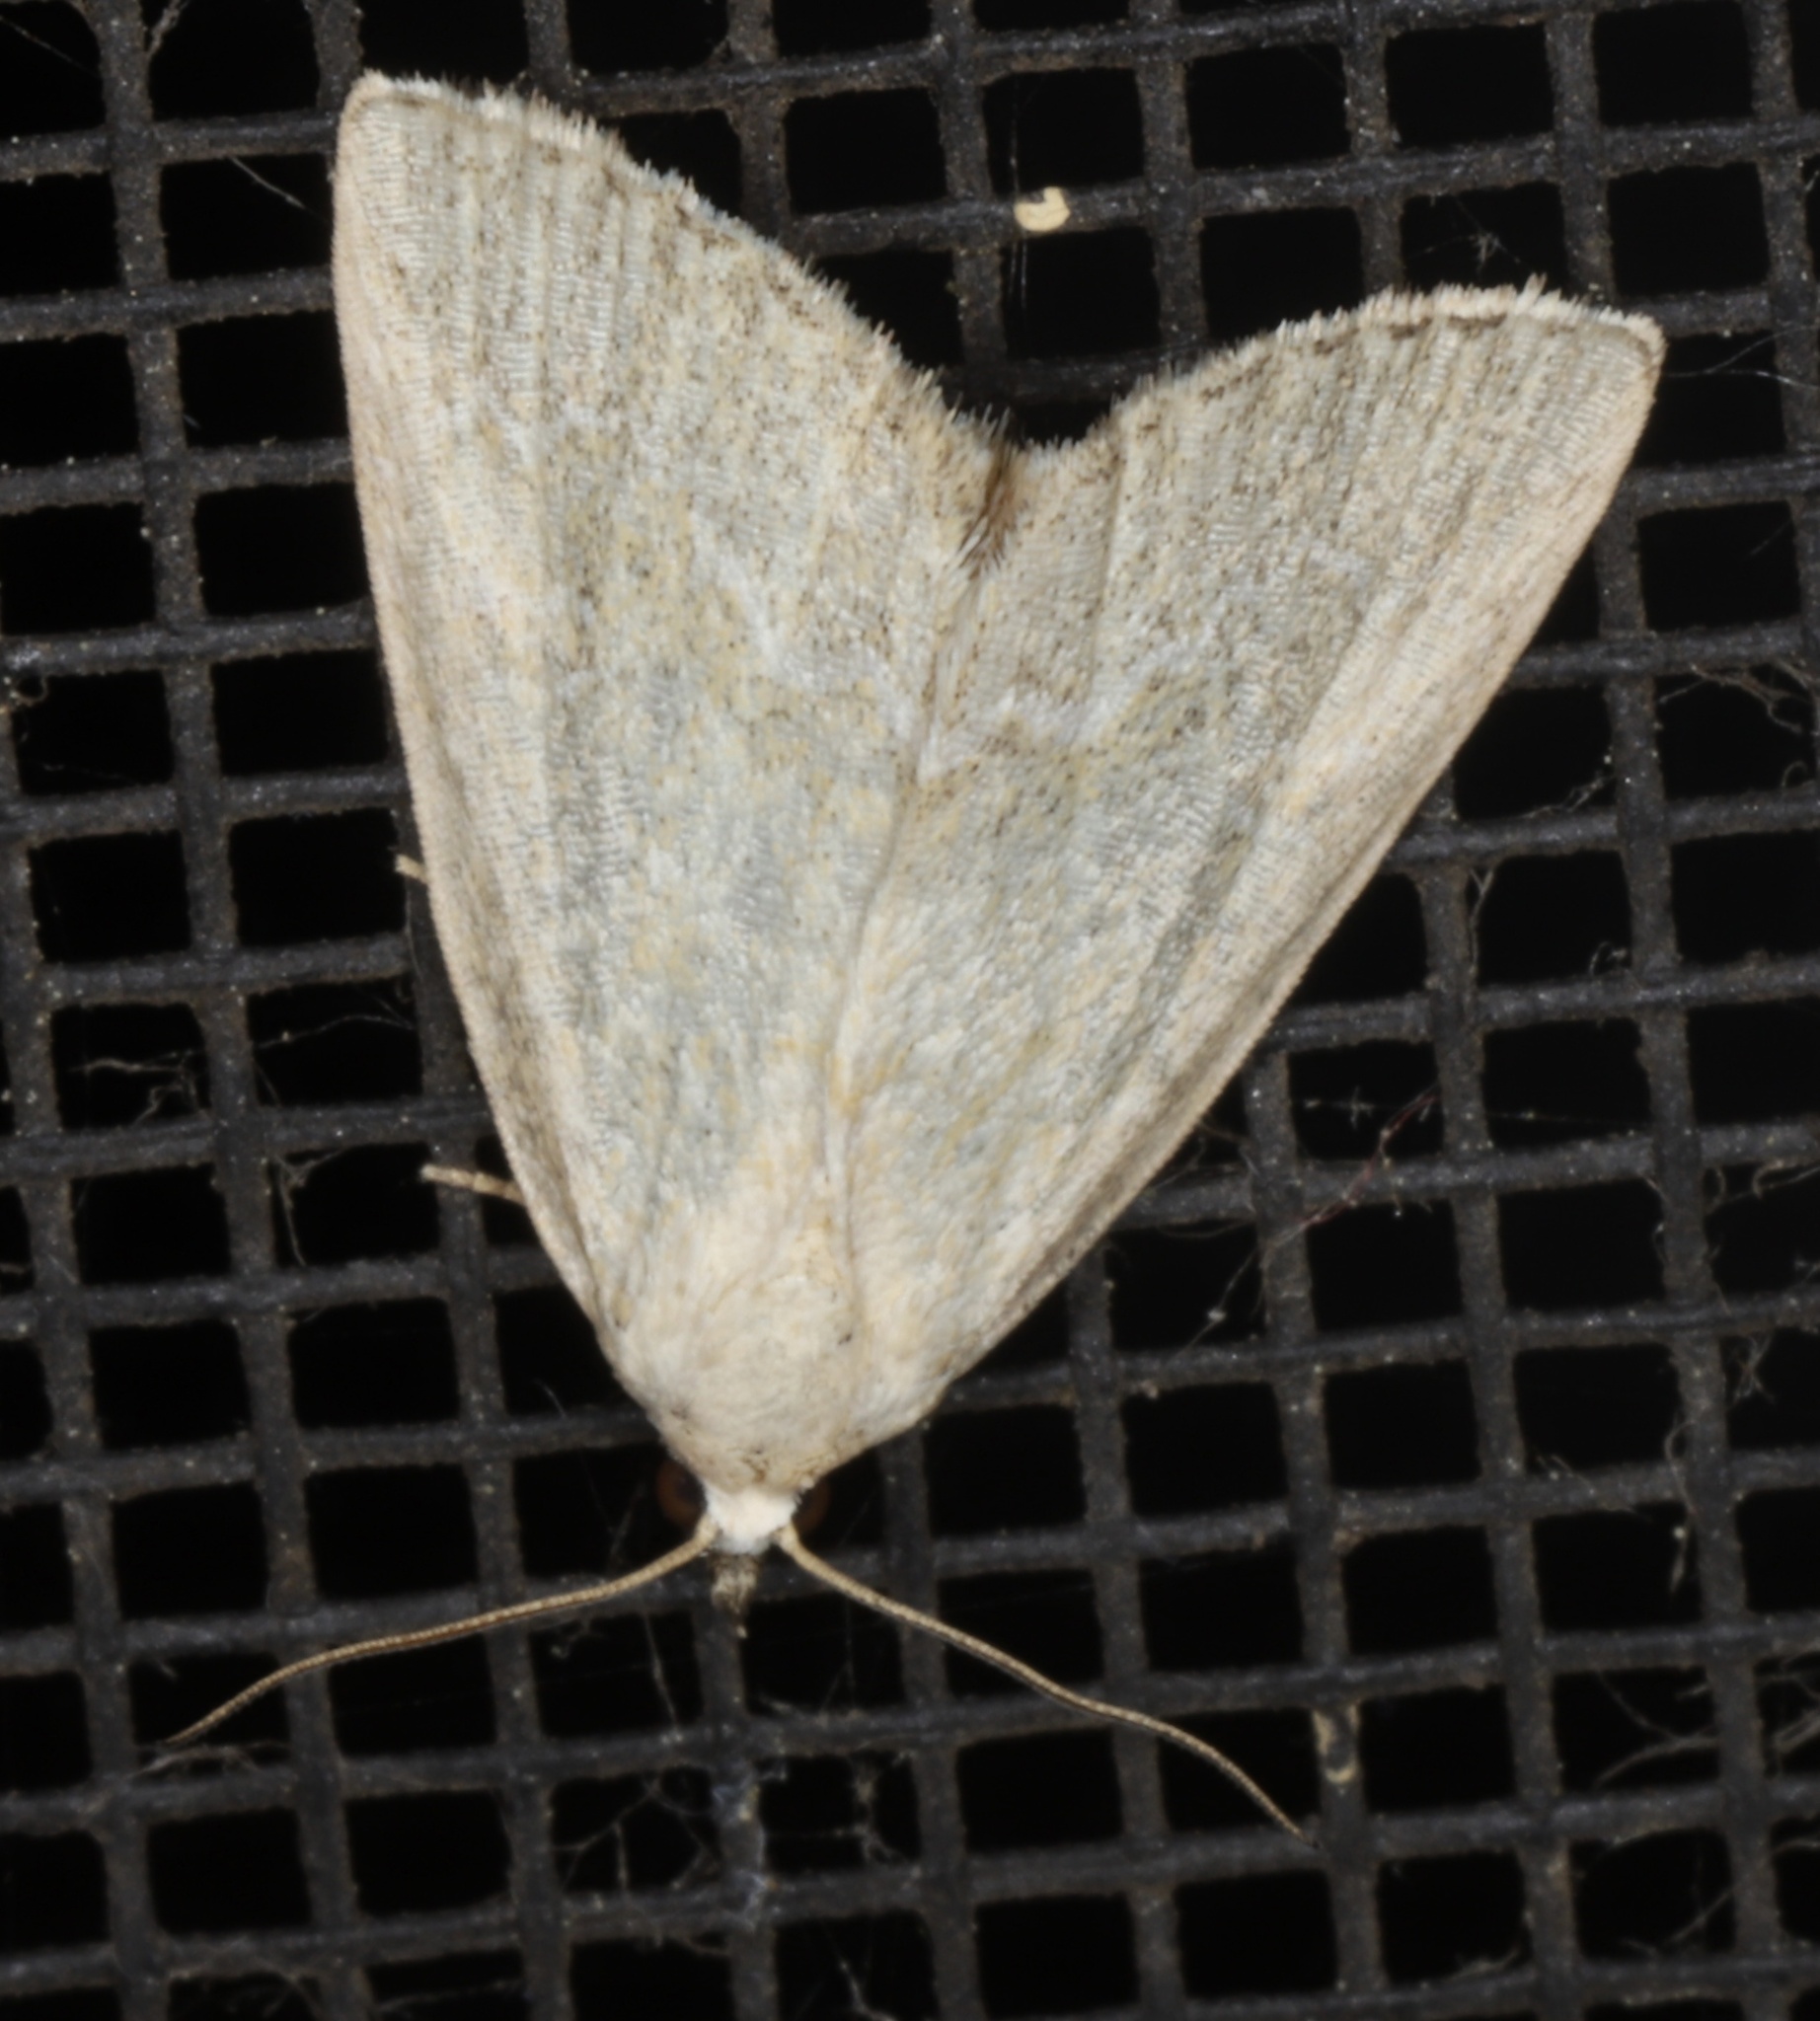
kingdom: Animalia
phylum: Arthropoda
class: Insecta
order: Lepidoptera
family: Noctuidae
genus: Protodeltote
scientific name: Protodeltote albidula
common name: Pale glyph
